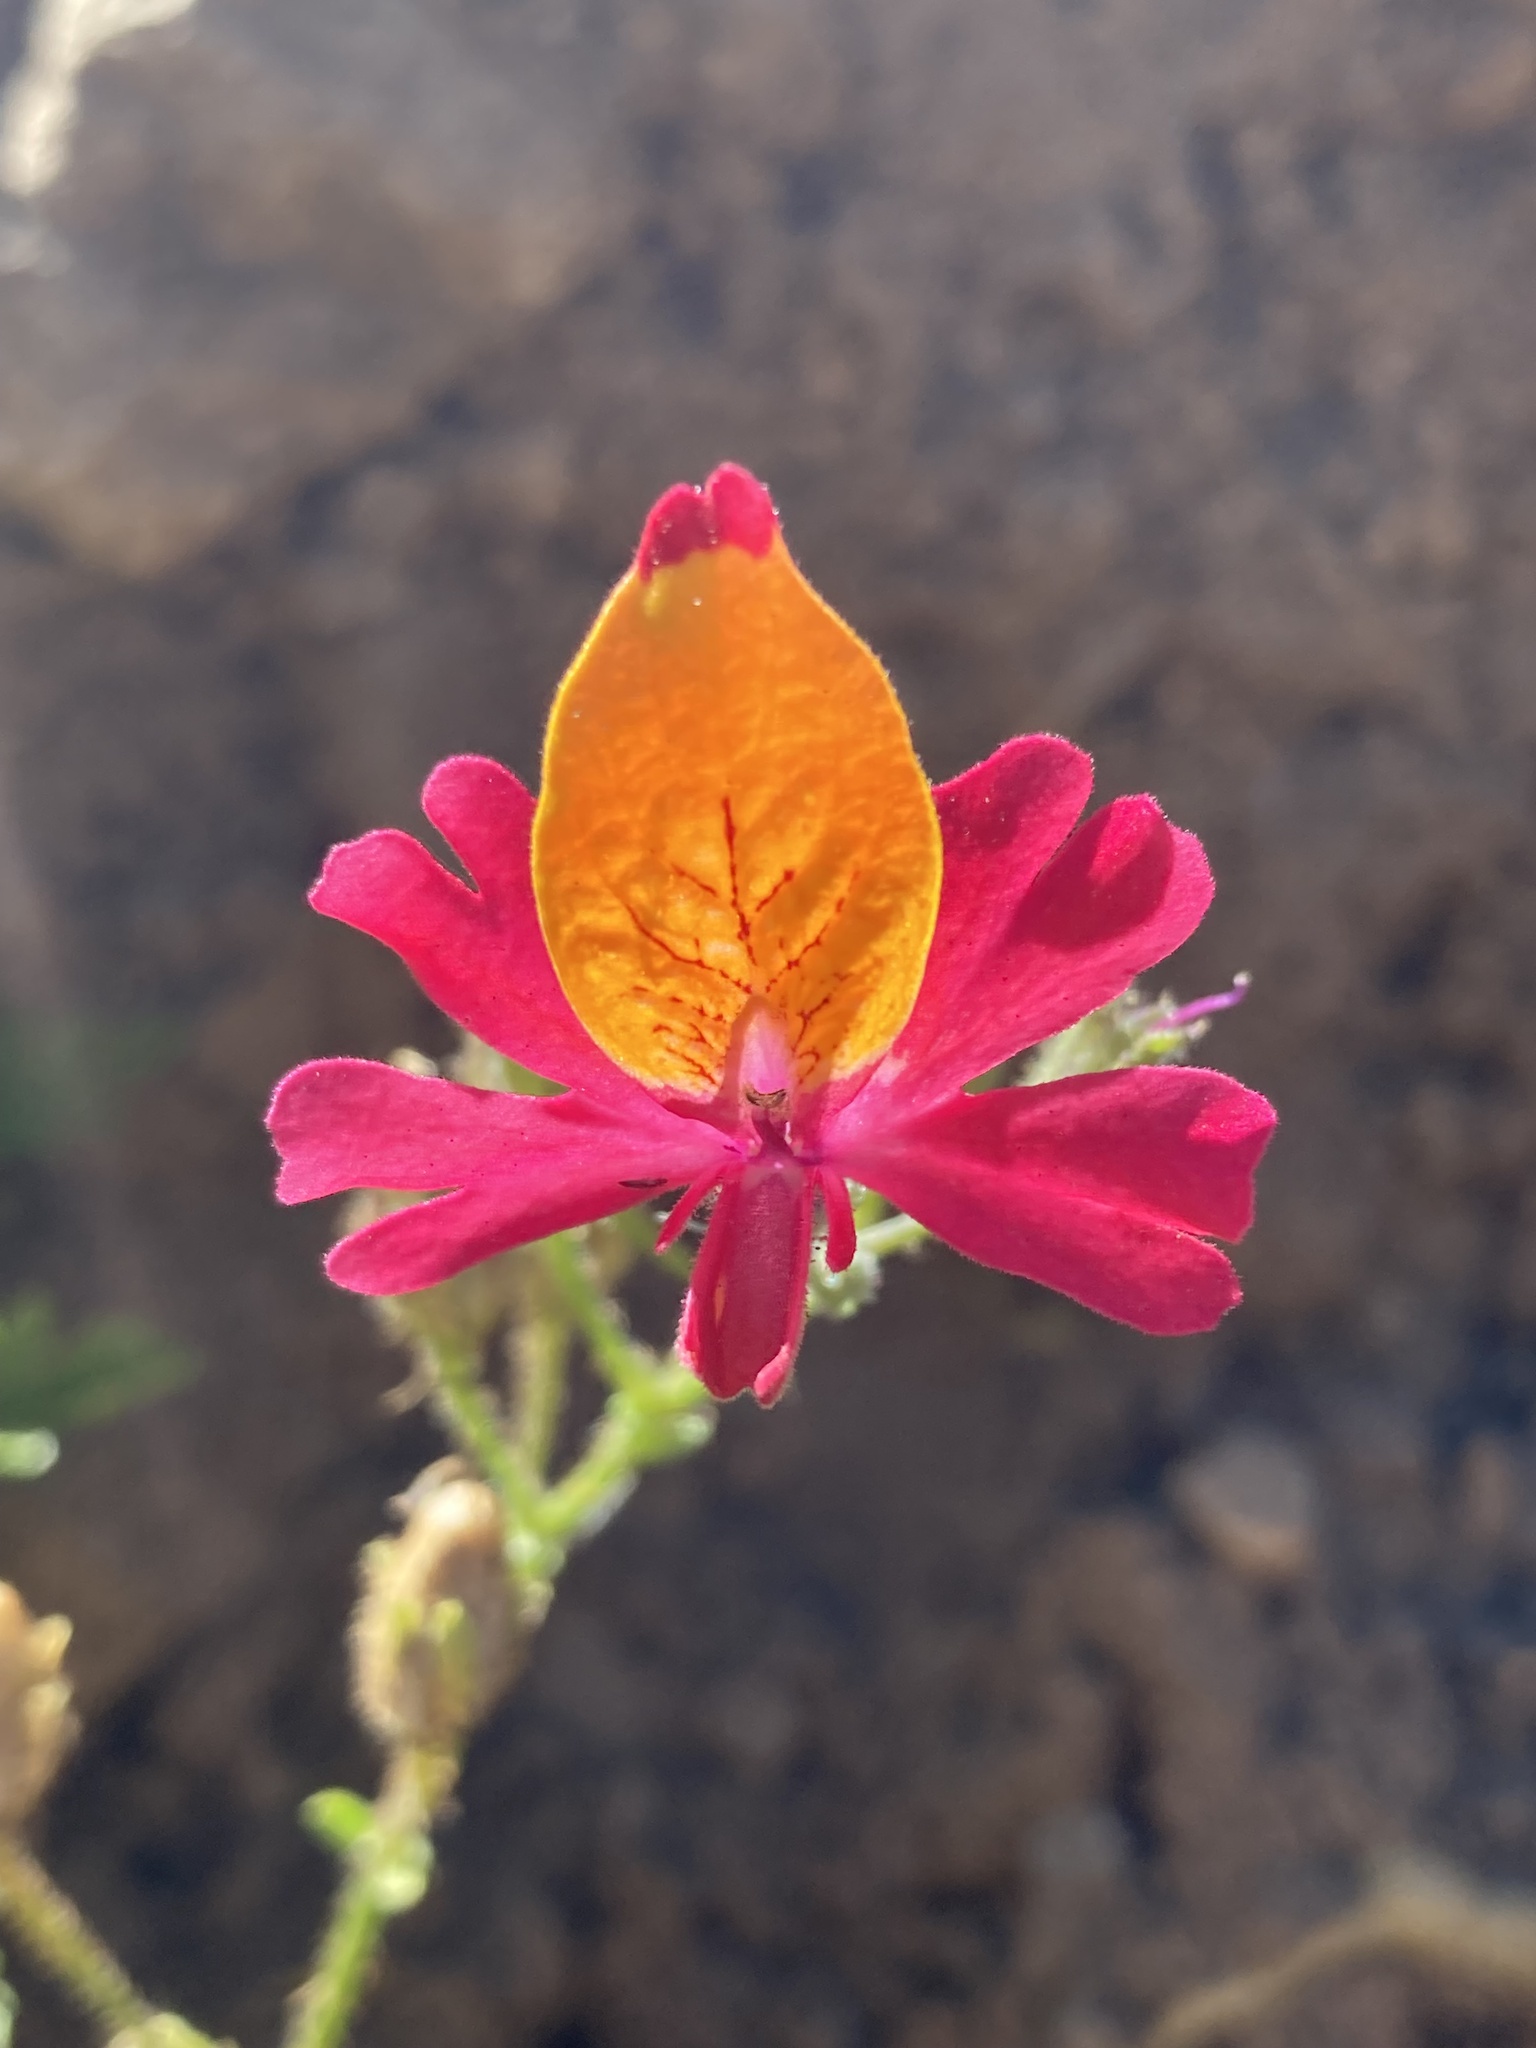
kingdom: Plantae
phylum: Tracheophyta
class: Magnoliopsida
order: Solanales
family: Solanaceae
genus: Schizanthus
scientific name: Schizanthus grahamii
